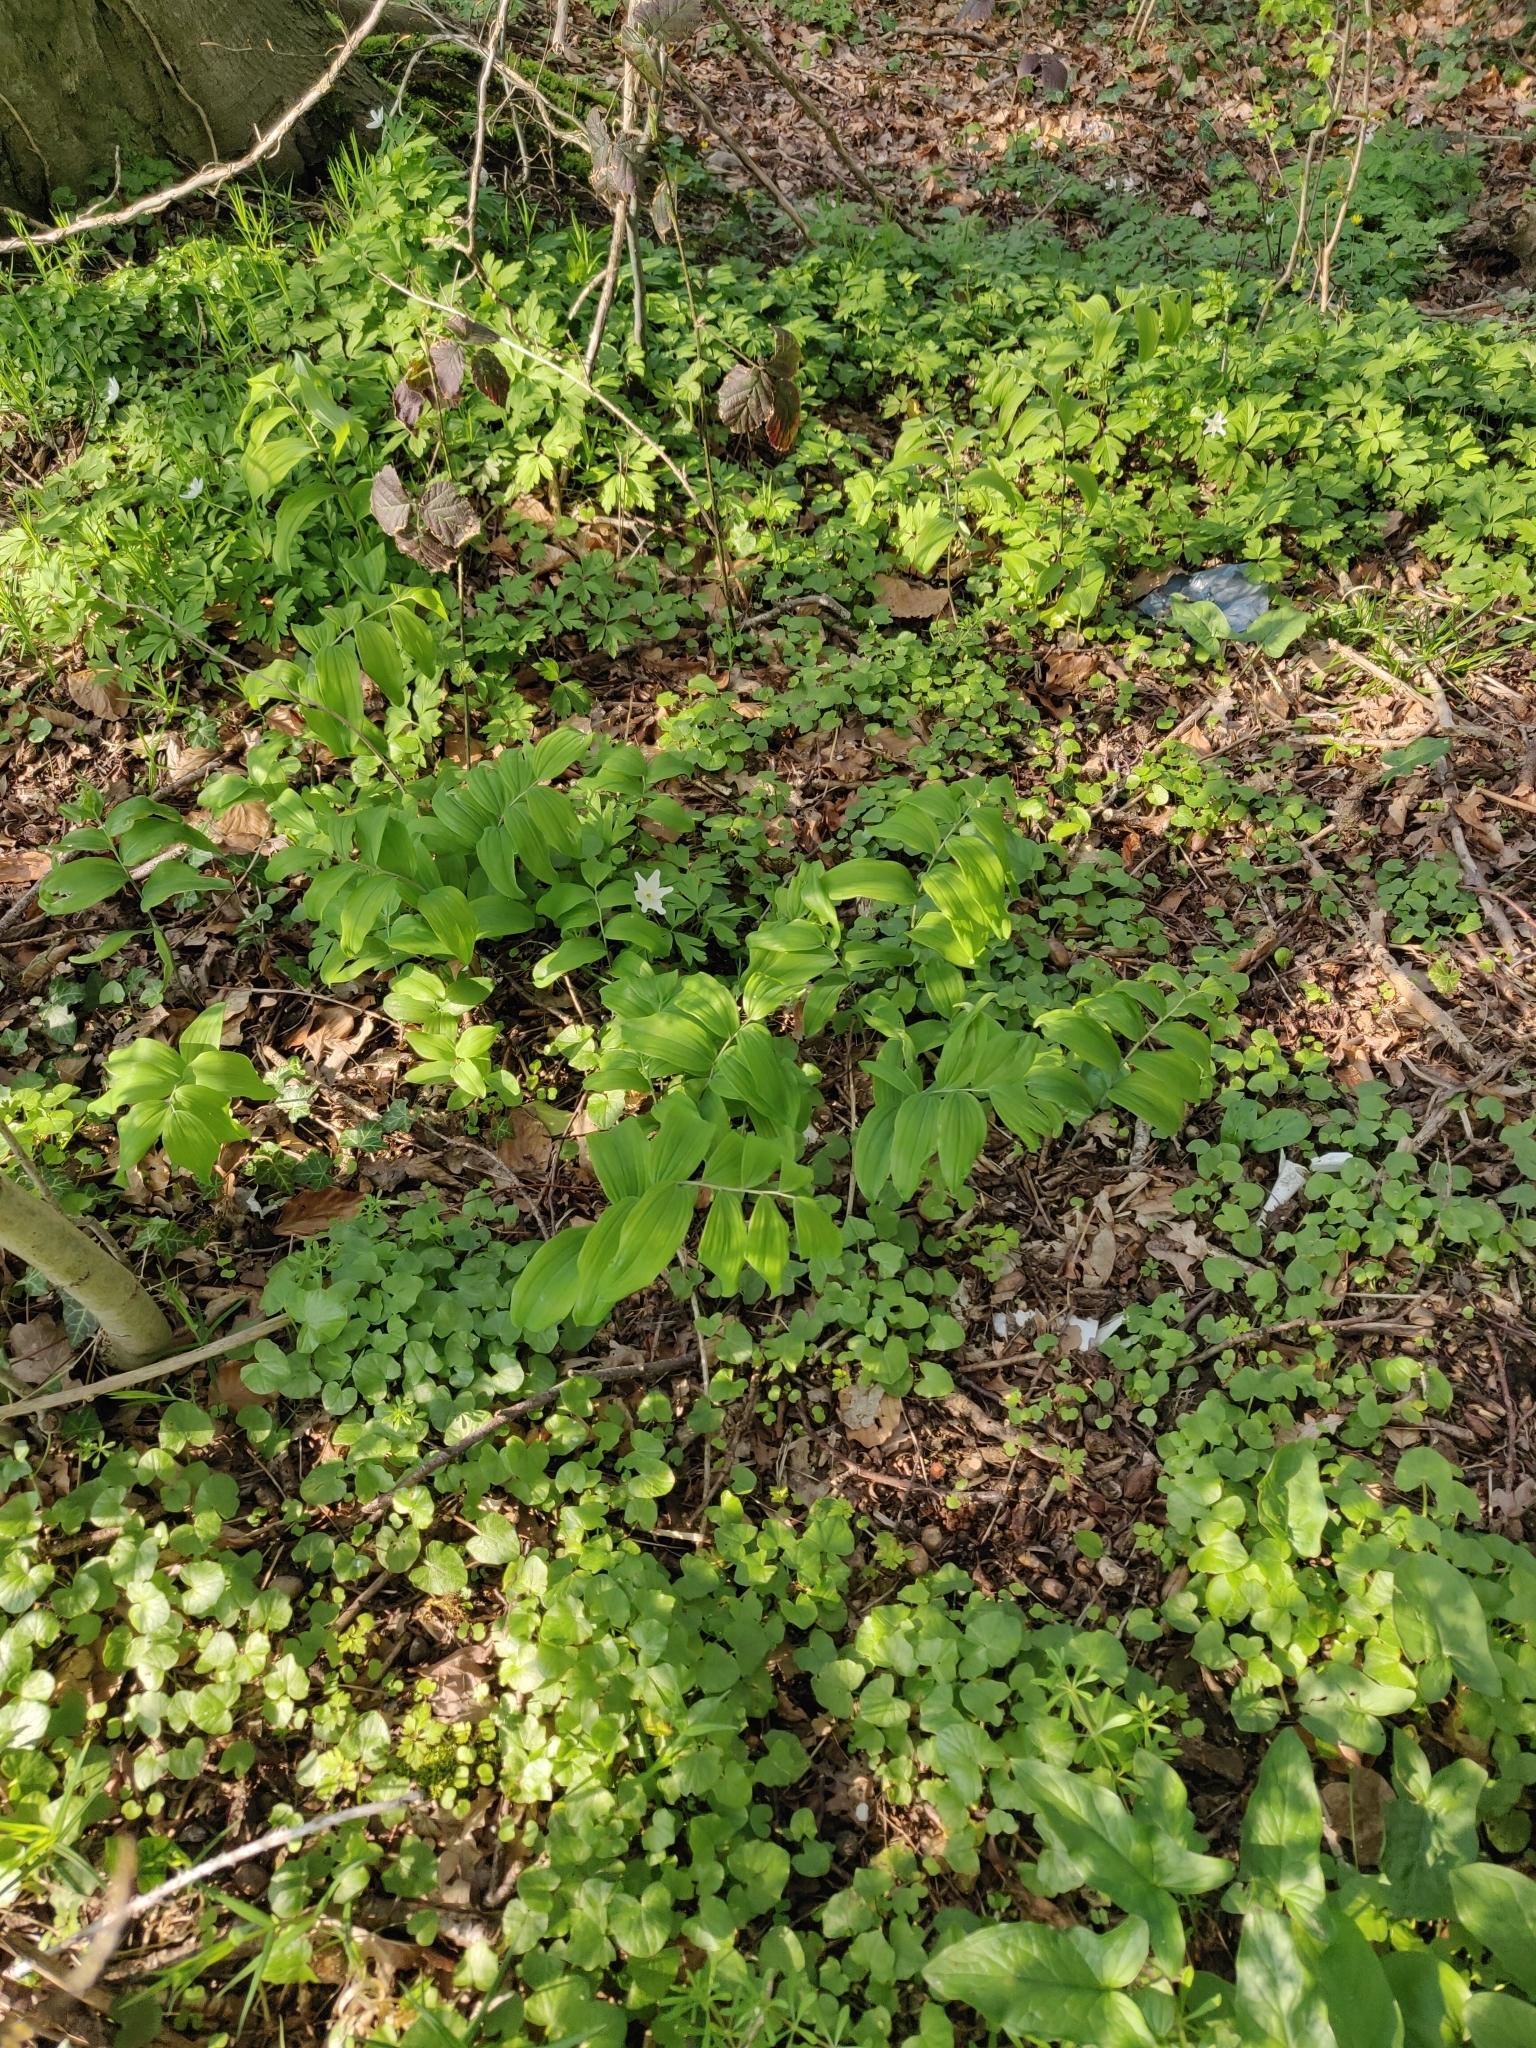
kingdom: Plantae
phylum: Tracheophyta
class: Liliopsida
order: Asparagales
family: Asparagaceae
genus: Polygonatum
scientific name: Polygonatum multiflorum
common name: Solomon's-seal
